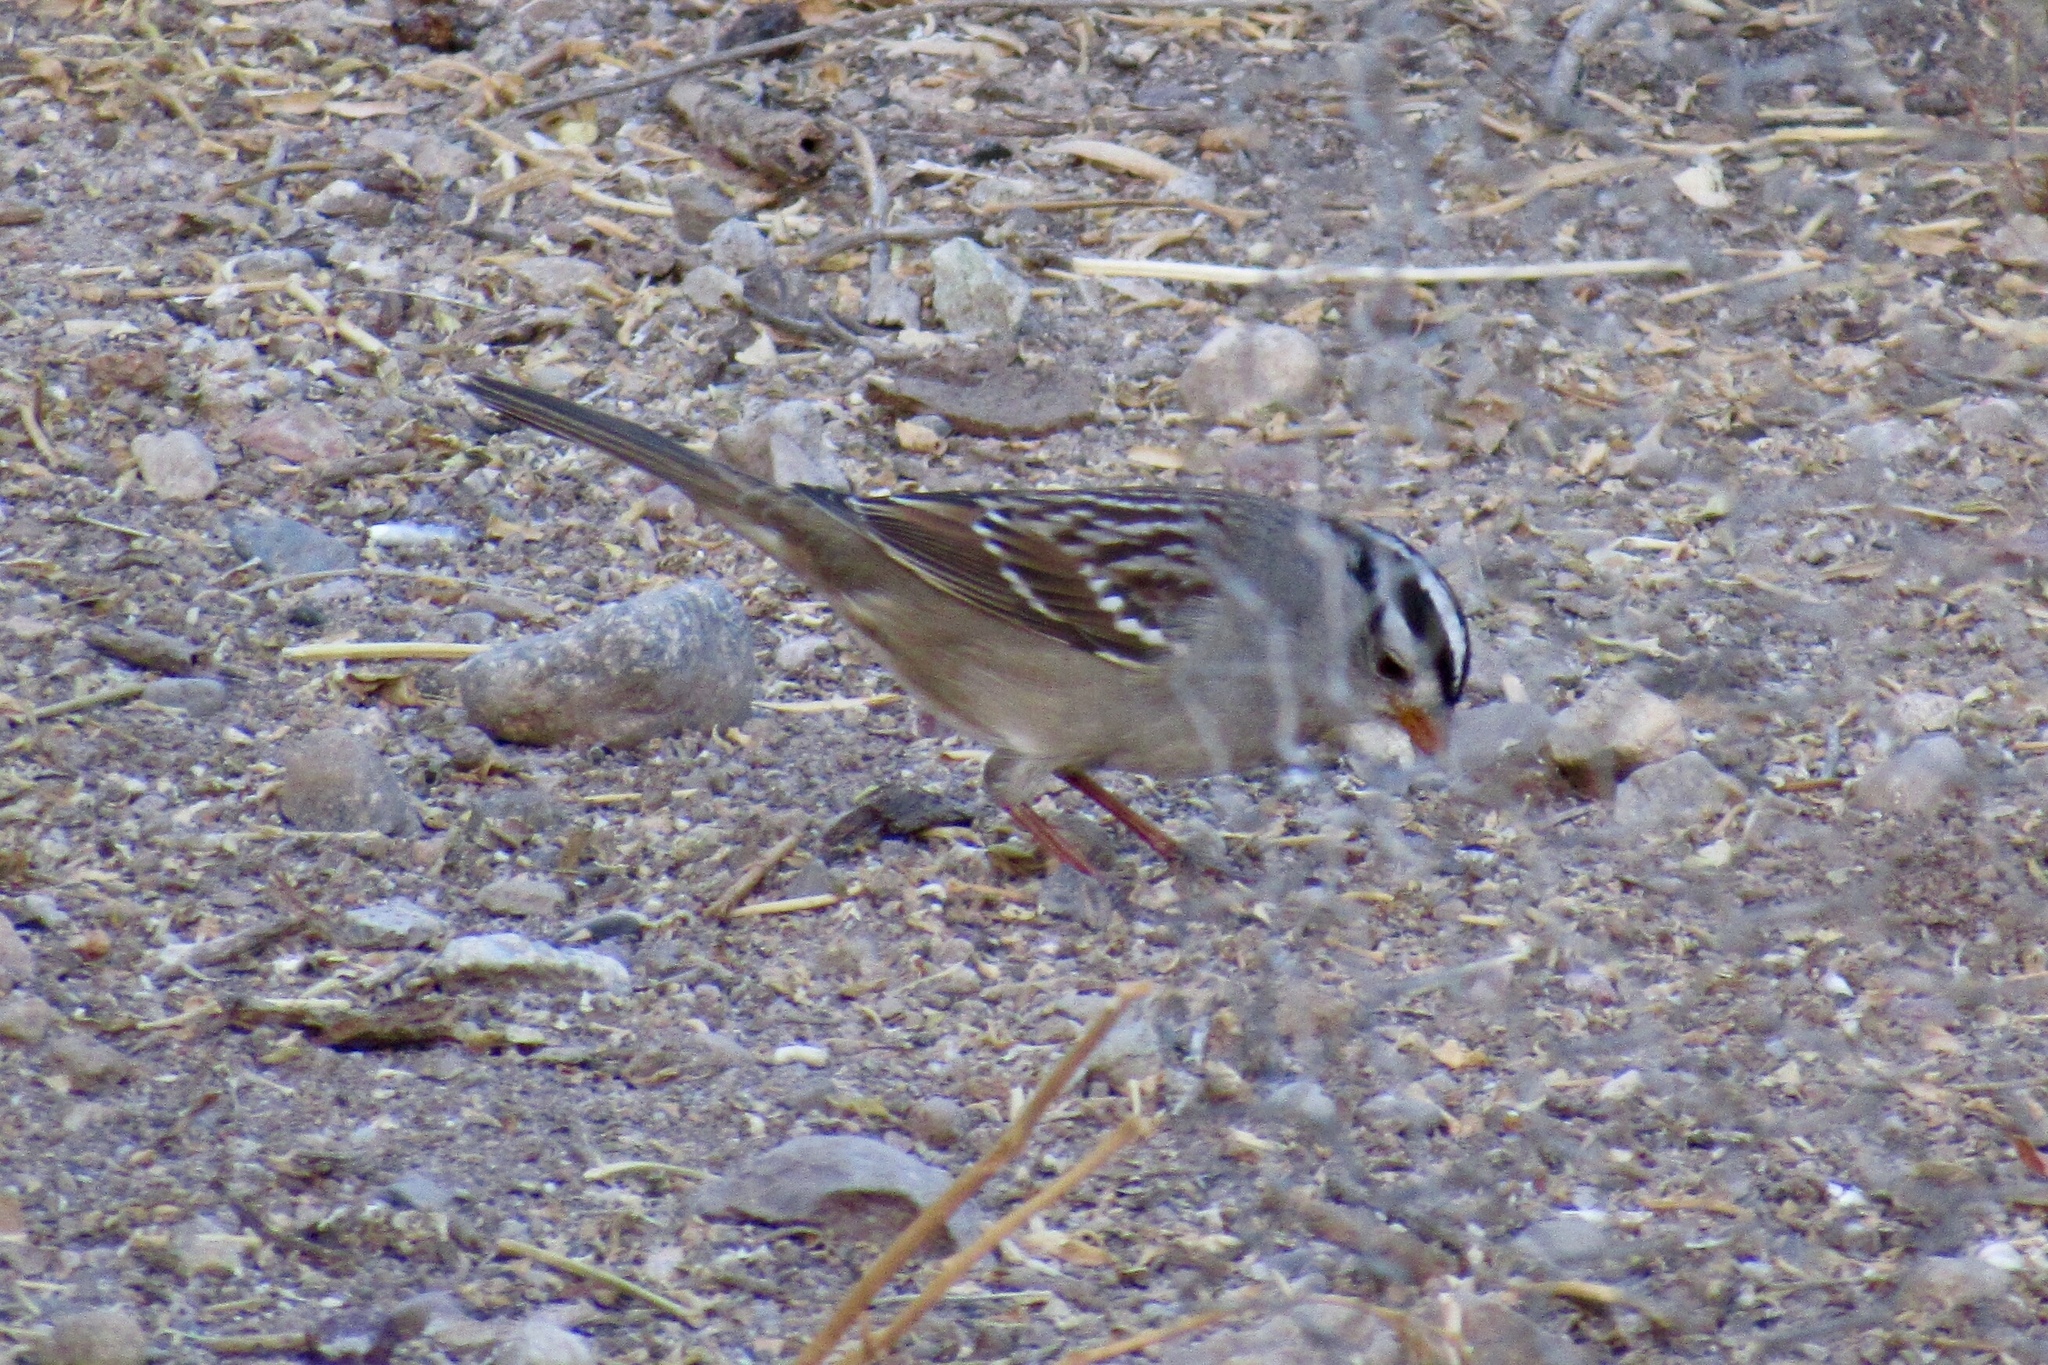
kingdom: Animalia
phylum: Chordata
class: Aves
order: Passeriformes
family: Passerellidae
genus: Zonotrichia
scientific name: Zonotrichia leucophrys
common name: White-crowned sparrow
